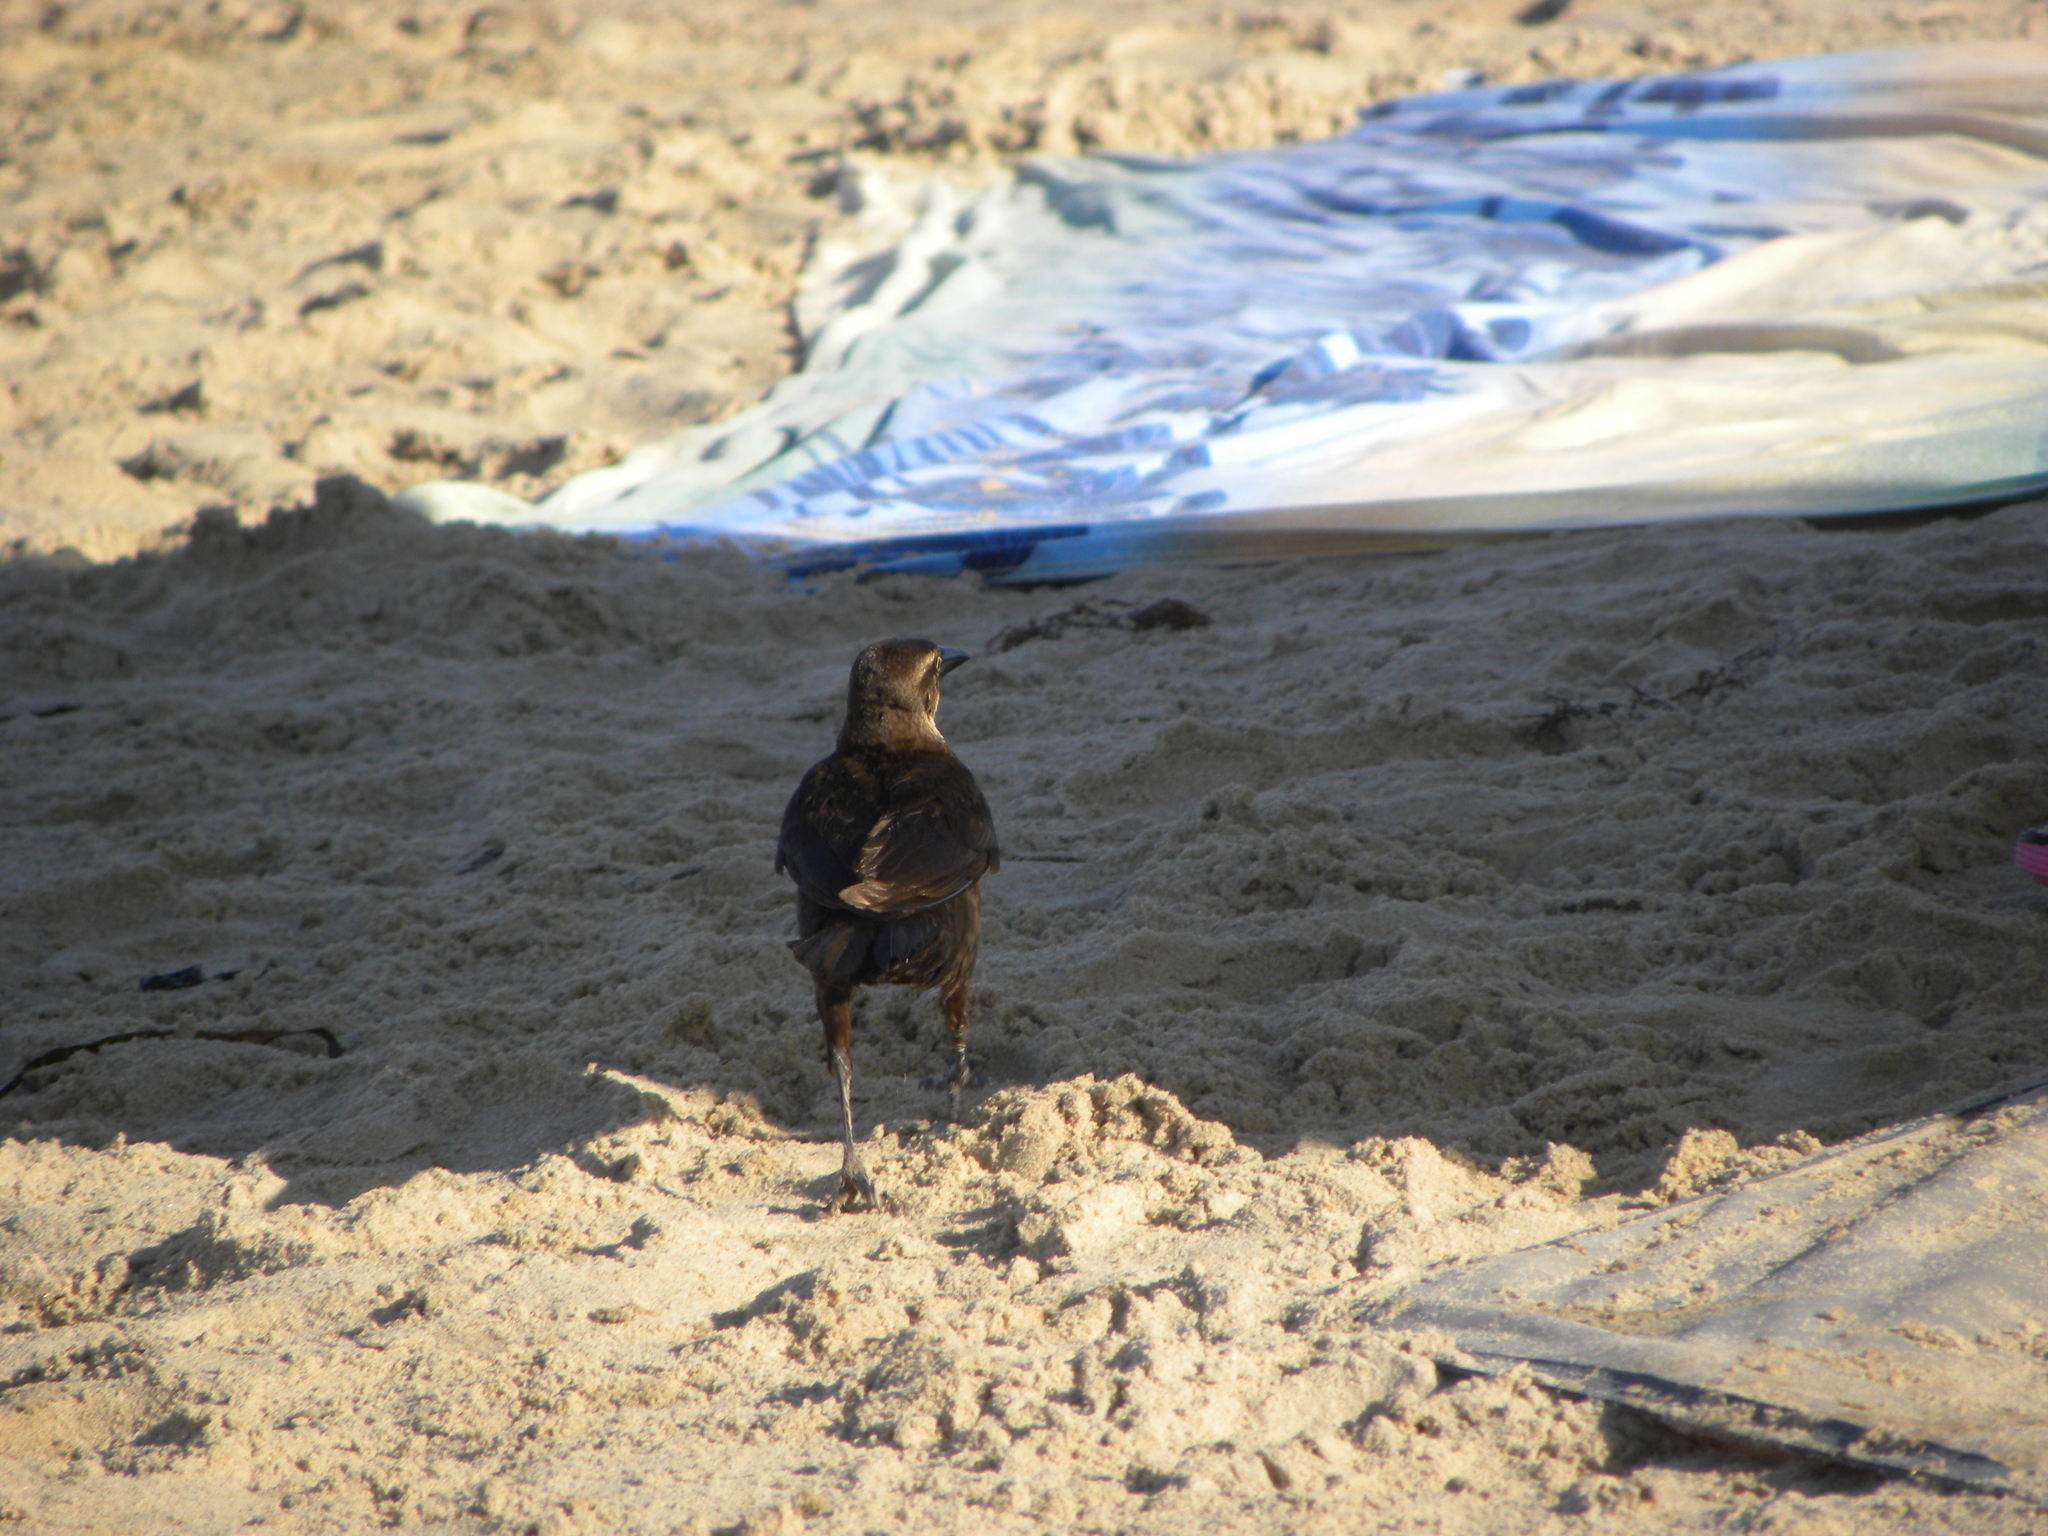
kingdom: Animalia
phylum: Chordata
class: Aves
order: Passeriformes
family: Icteridae
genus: Quiscalus
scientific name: Quiscalus mexicanus
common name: Great-tailed grackle
